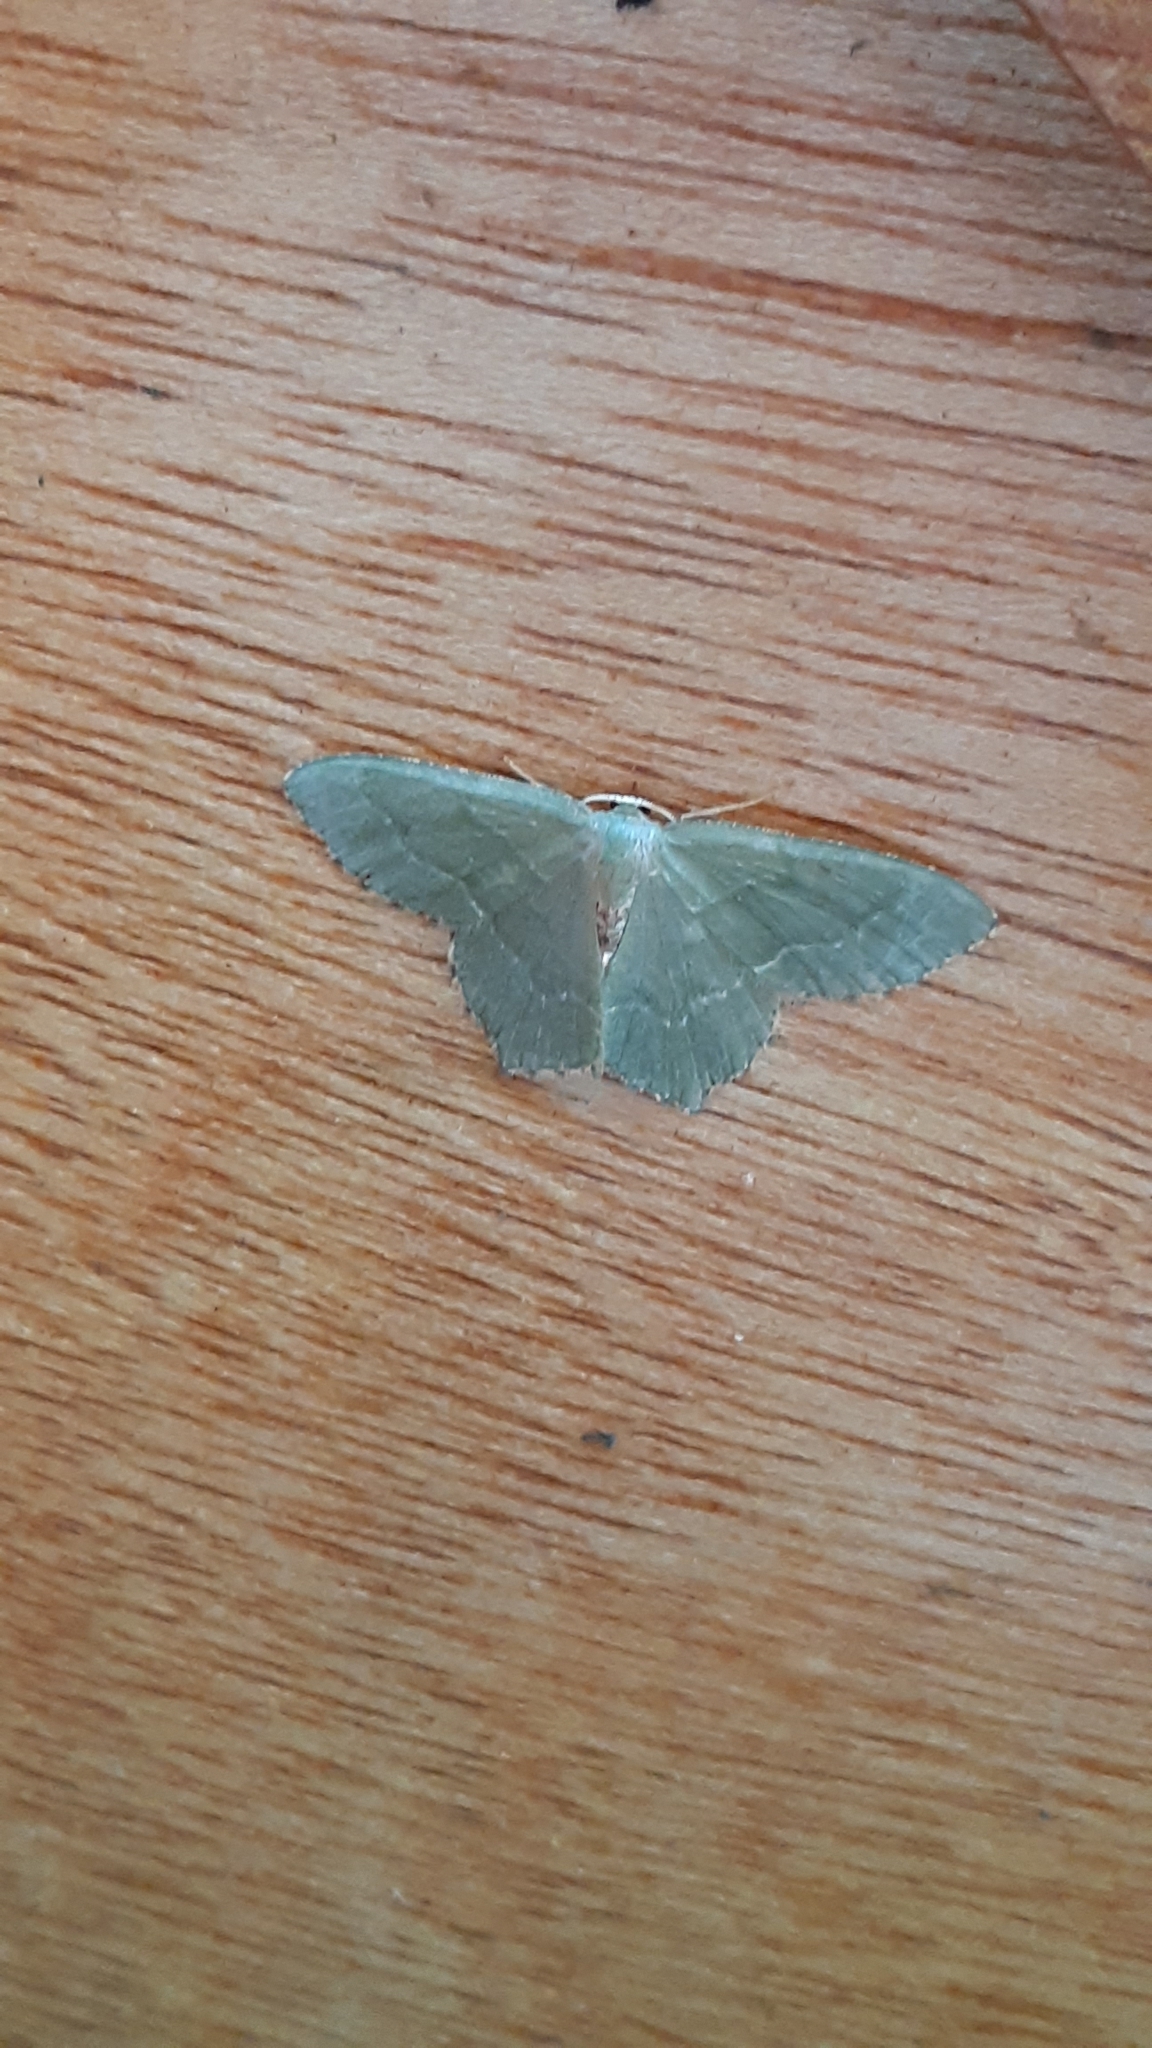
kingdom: Animalia
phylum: Arthropoda
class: Insecta
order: Lepidoptera
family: Geometridae
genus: Hemithea
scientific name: Hemithea aestivaria
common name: Common emerald
